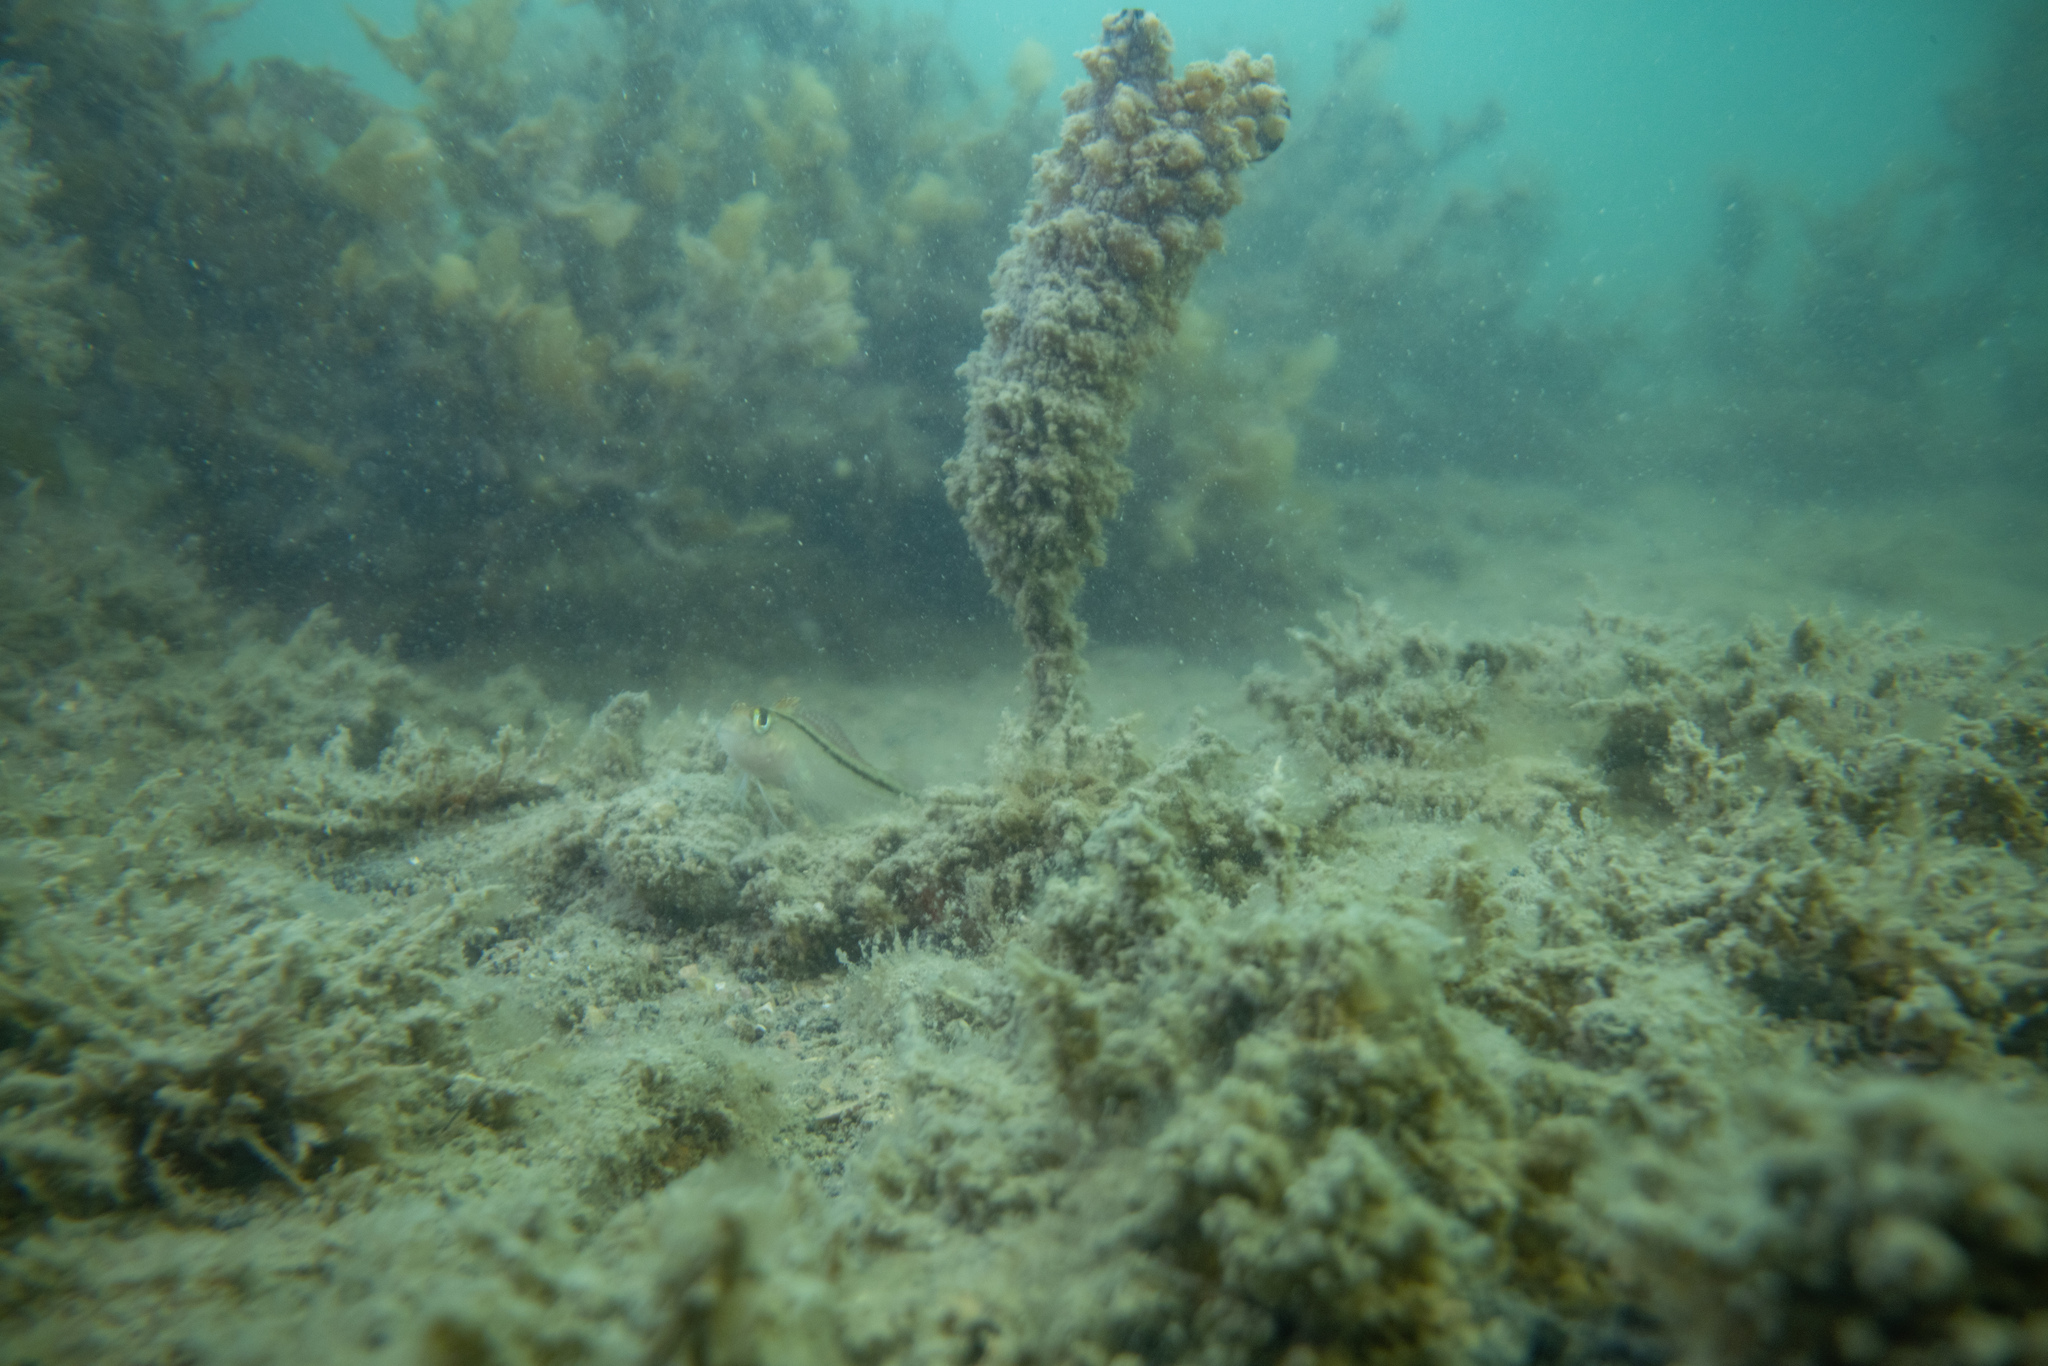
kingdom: Animalia
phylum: Chordata
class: Ascidiacea
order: Stolidobranchia
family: Styelidae
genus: Styela
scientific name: Styela clava
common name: Leathery sea squirt
